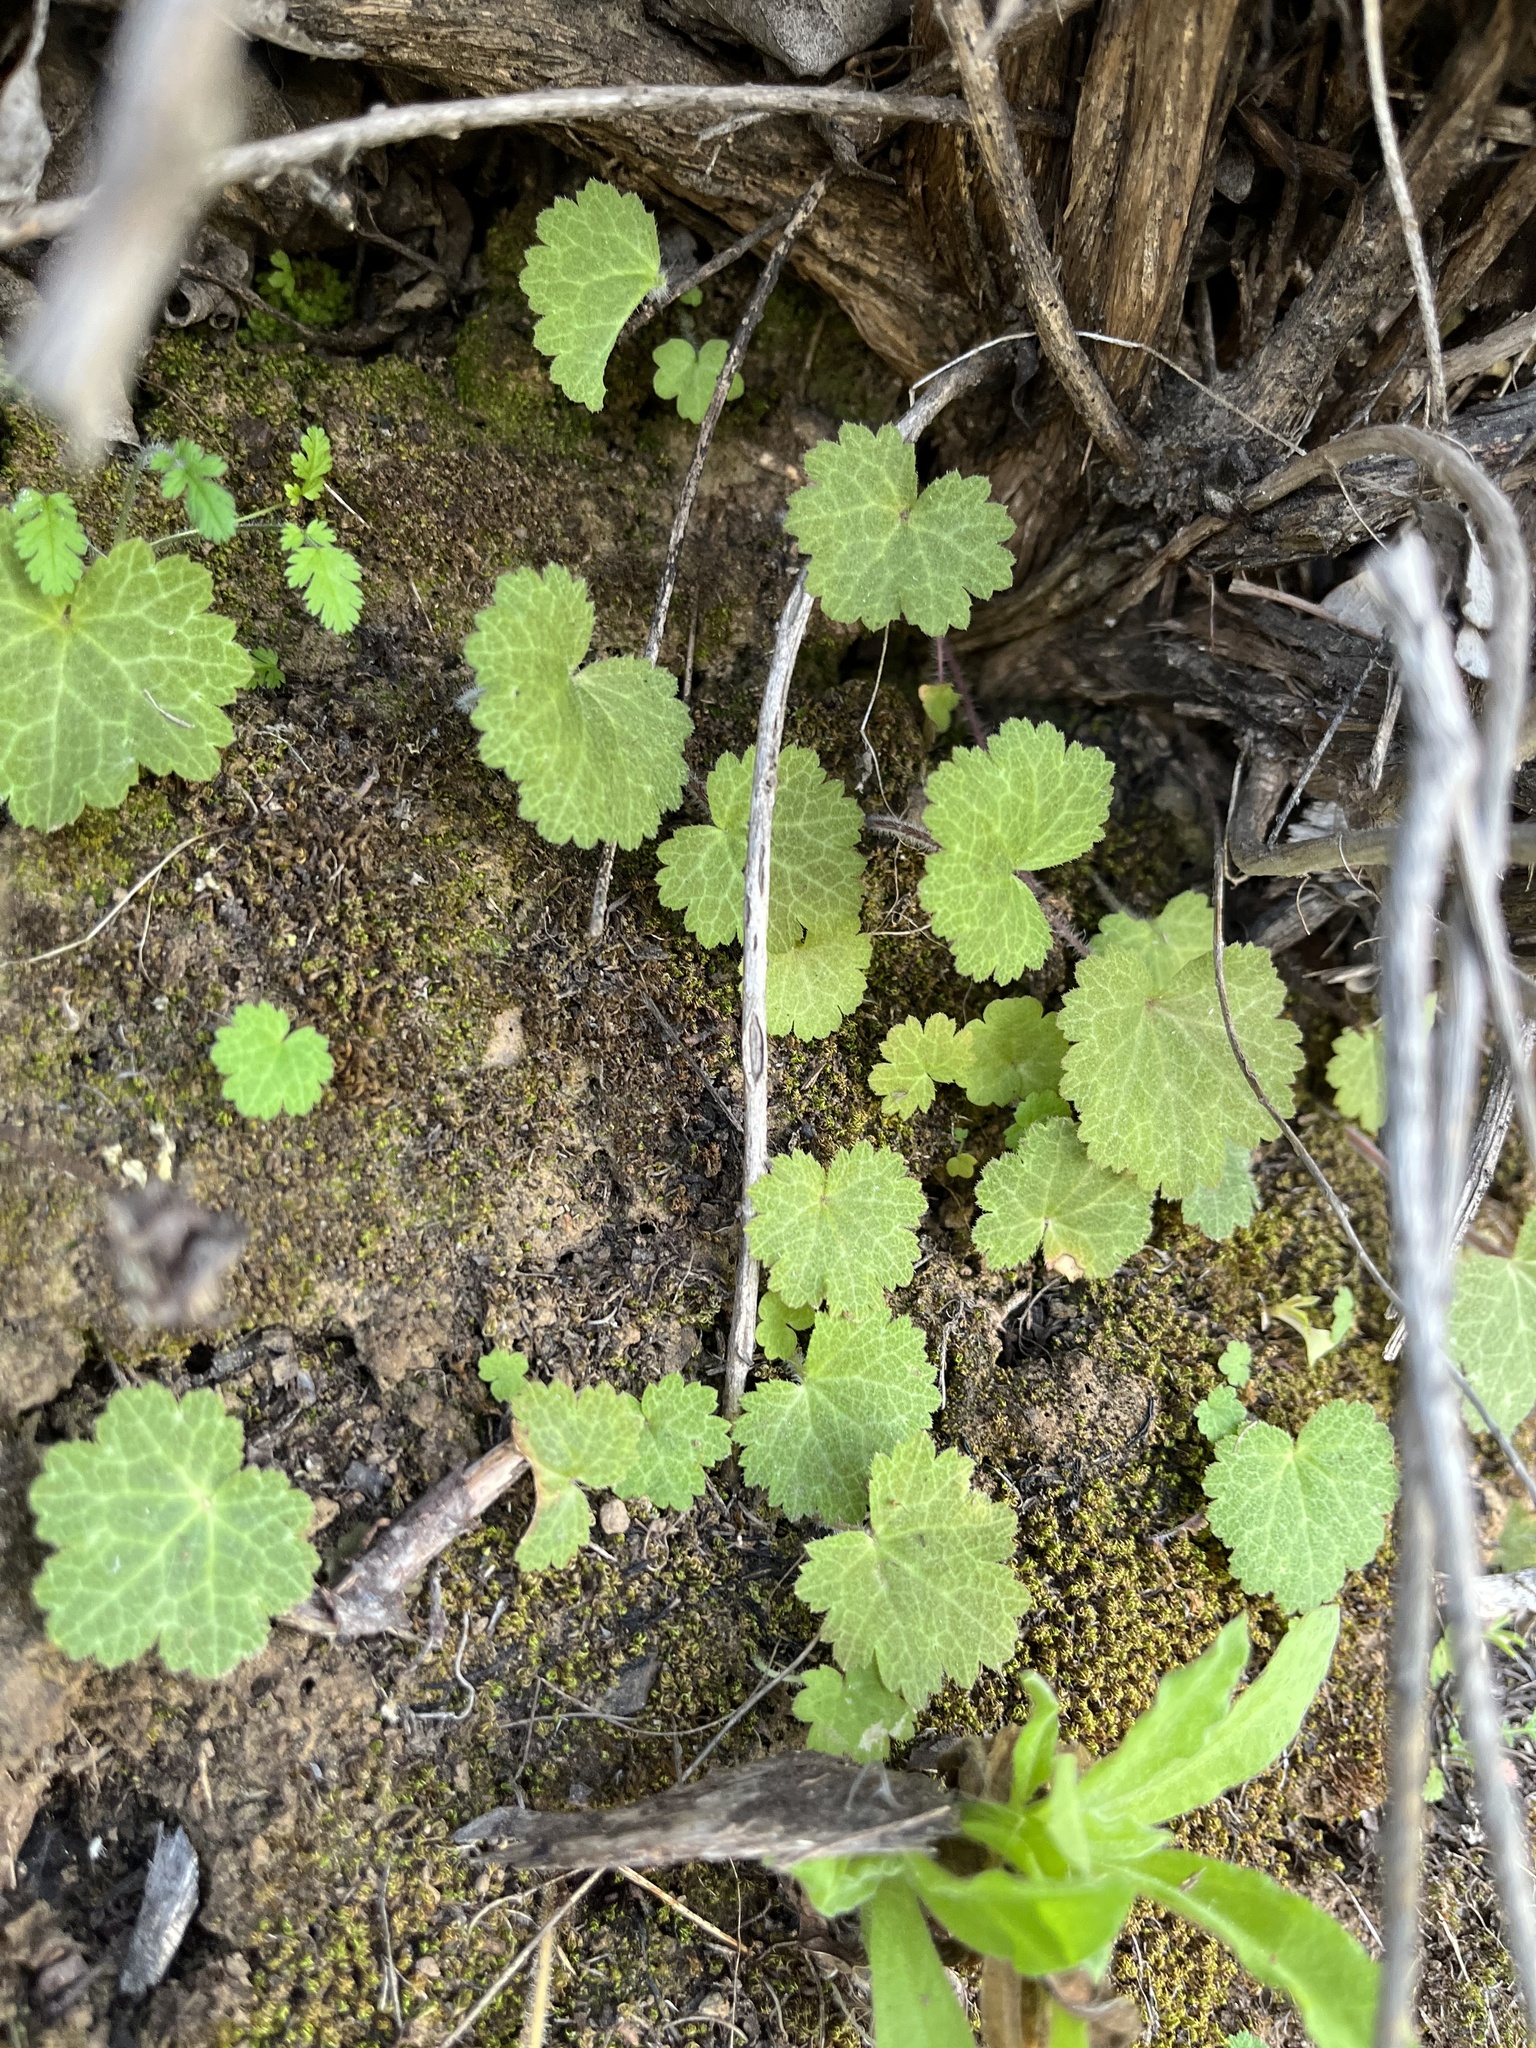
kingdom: Plantae
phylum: Tracheophyta
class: Magnoliopsida
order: Saxifragales
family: Saxifragaceae
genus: Jepsonia
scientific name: Jepsonia parryi
